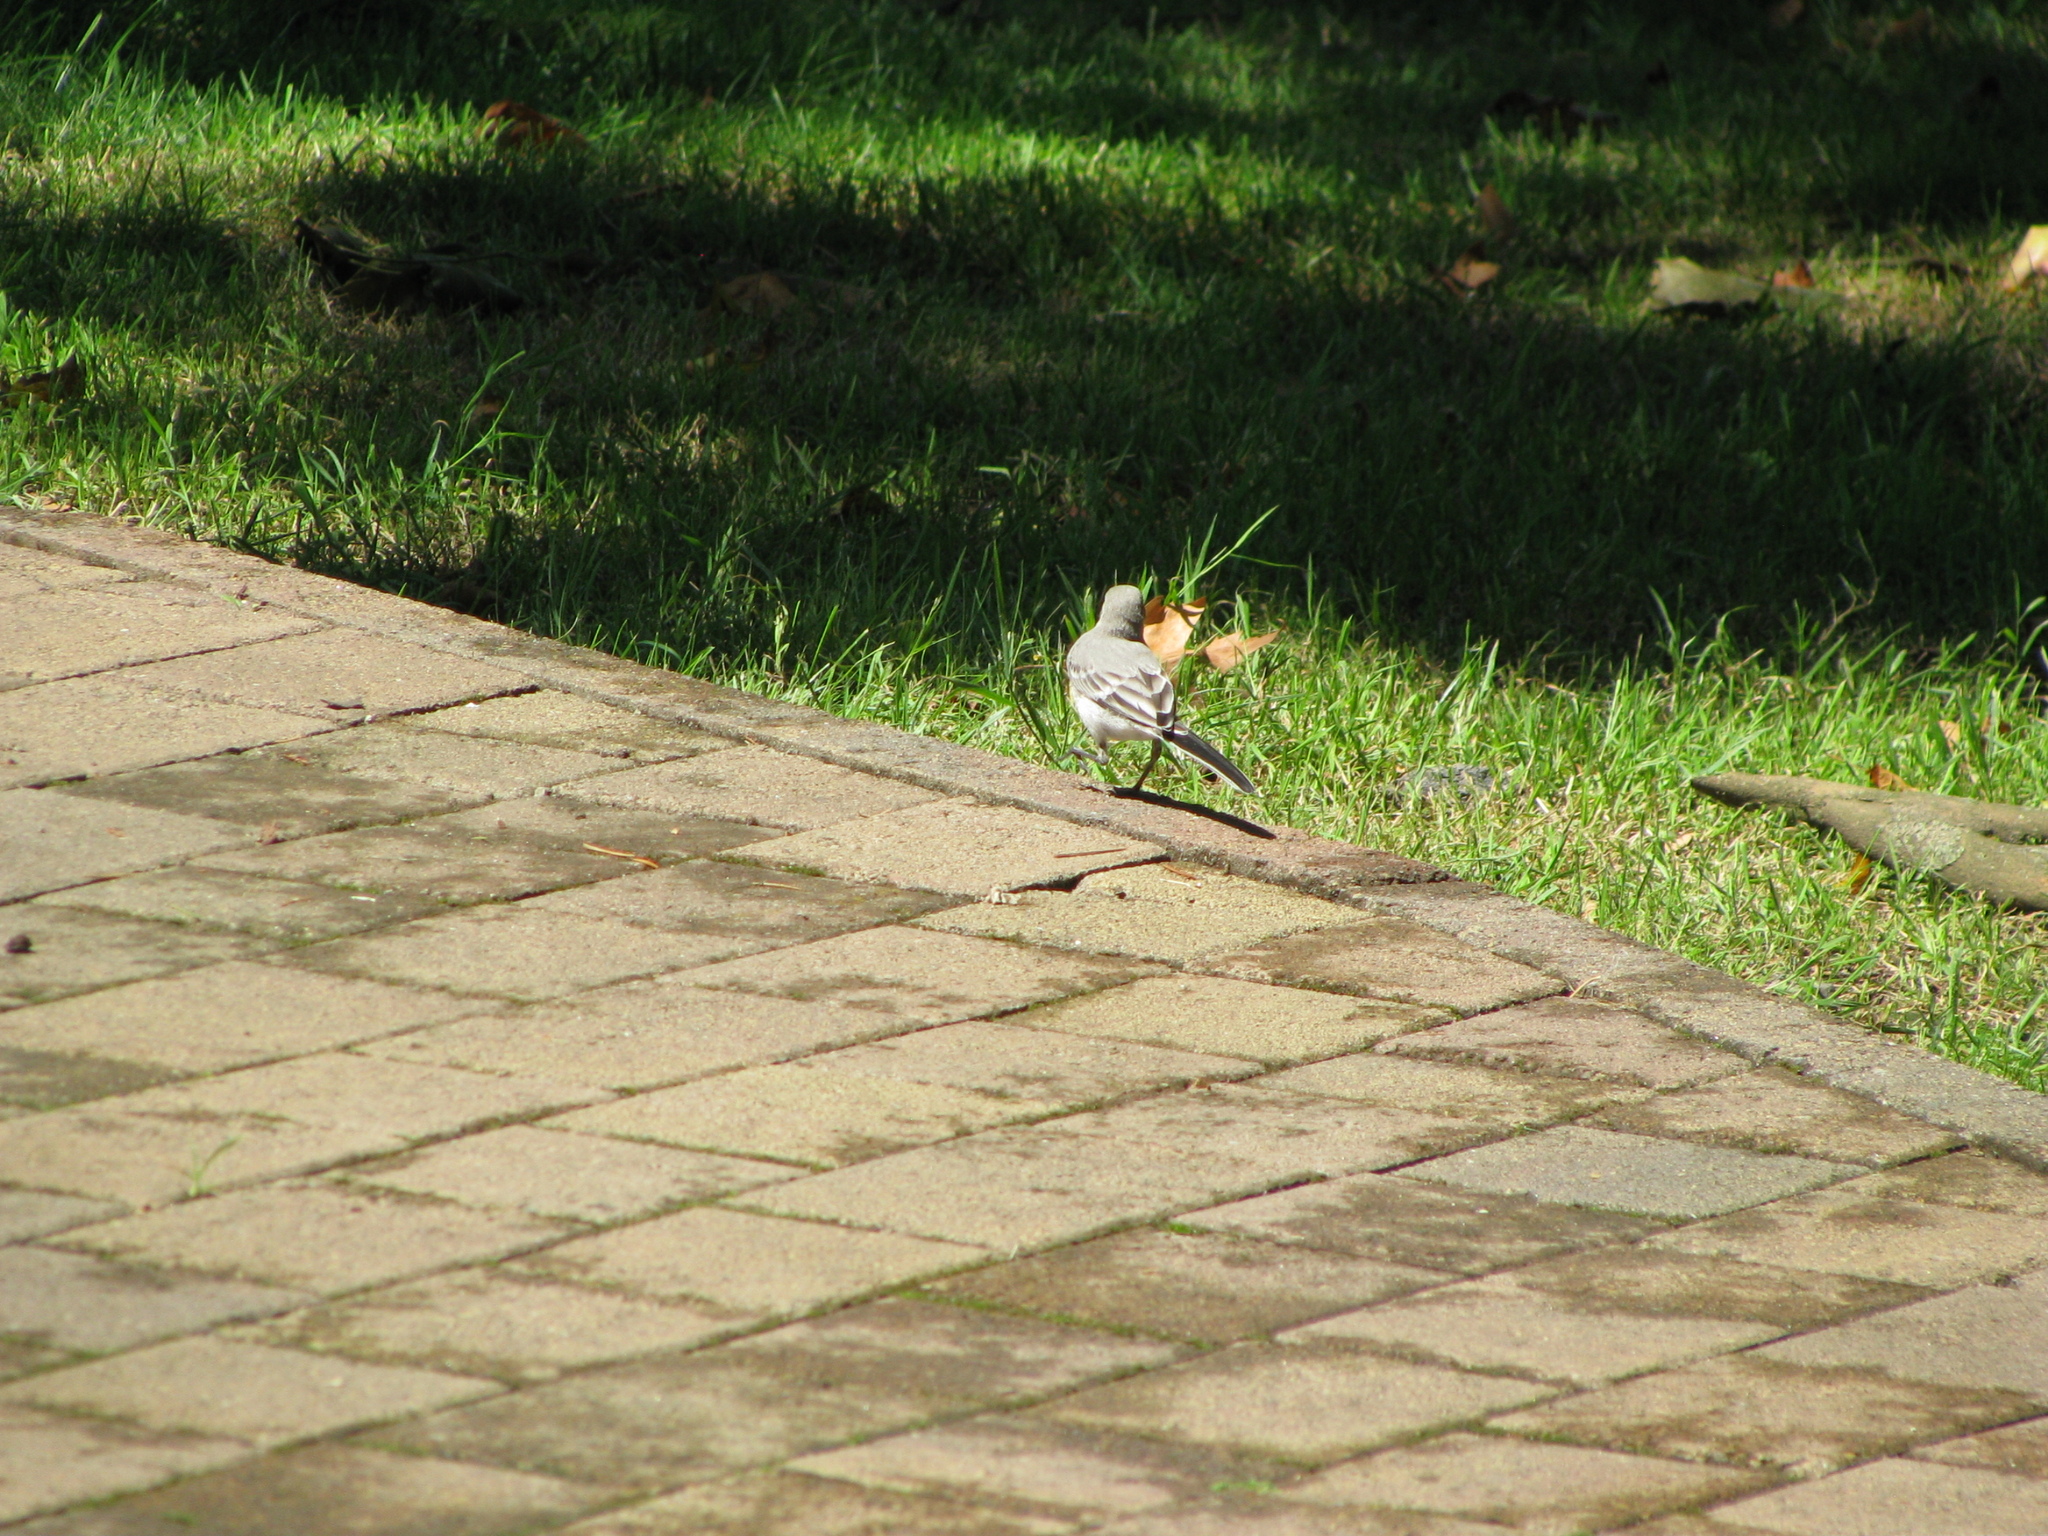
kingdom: Animalia
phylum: Chordata
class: Aves
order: Passeriformes
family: Motacillidae
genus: Motacilla
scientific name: Motacilla alba
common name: White wagtail
